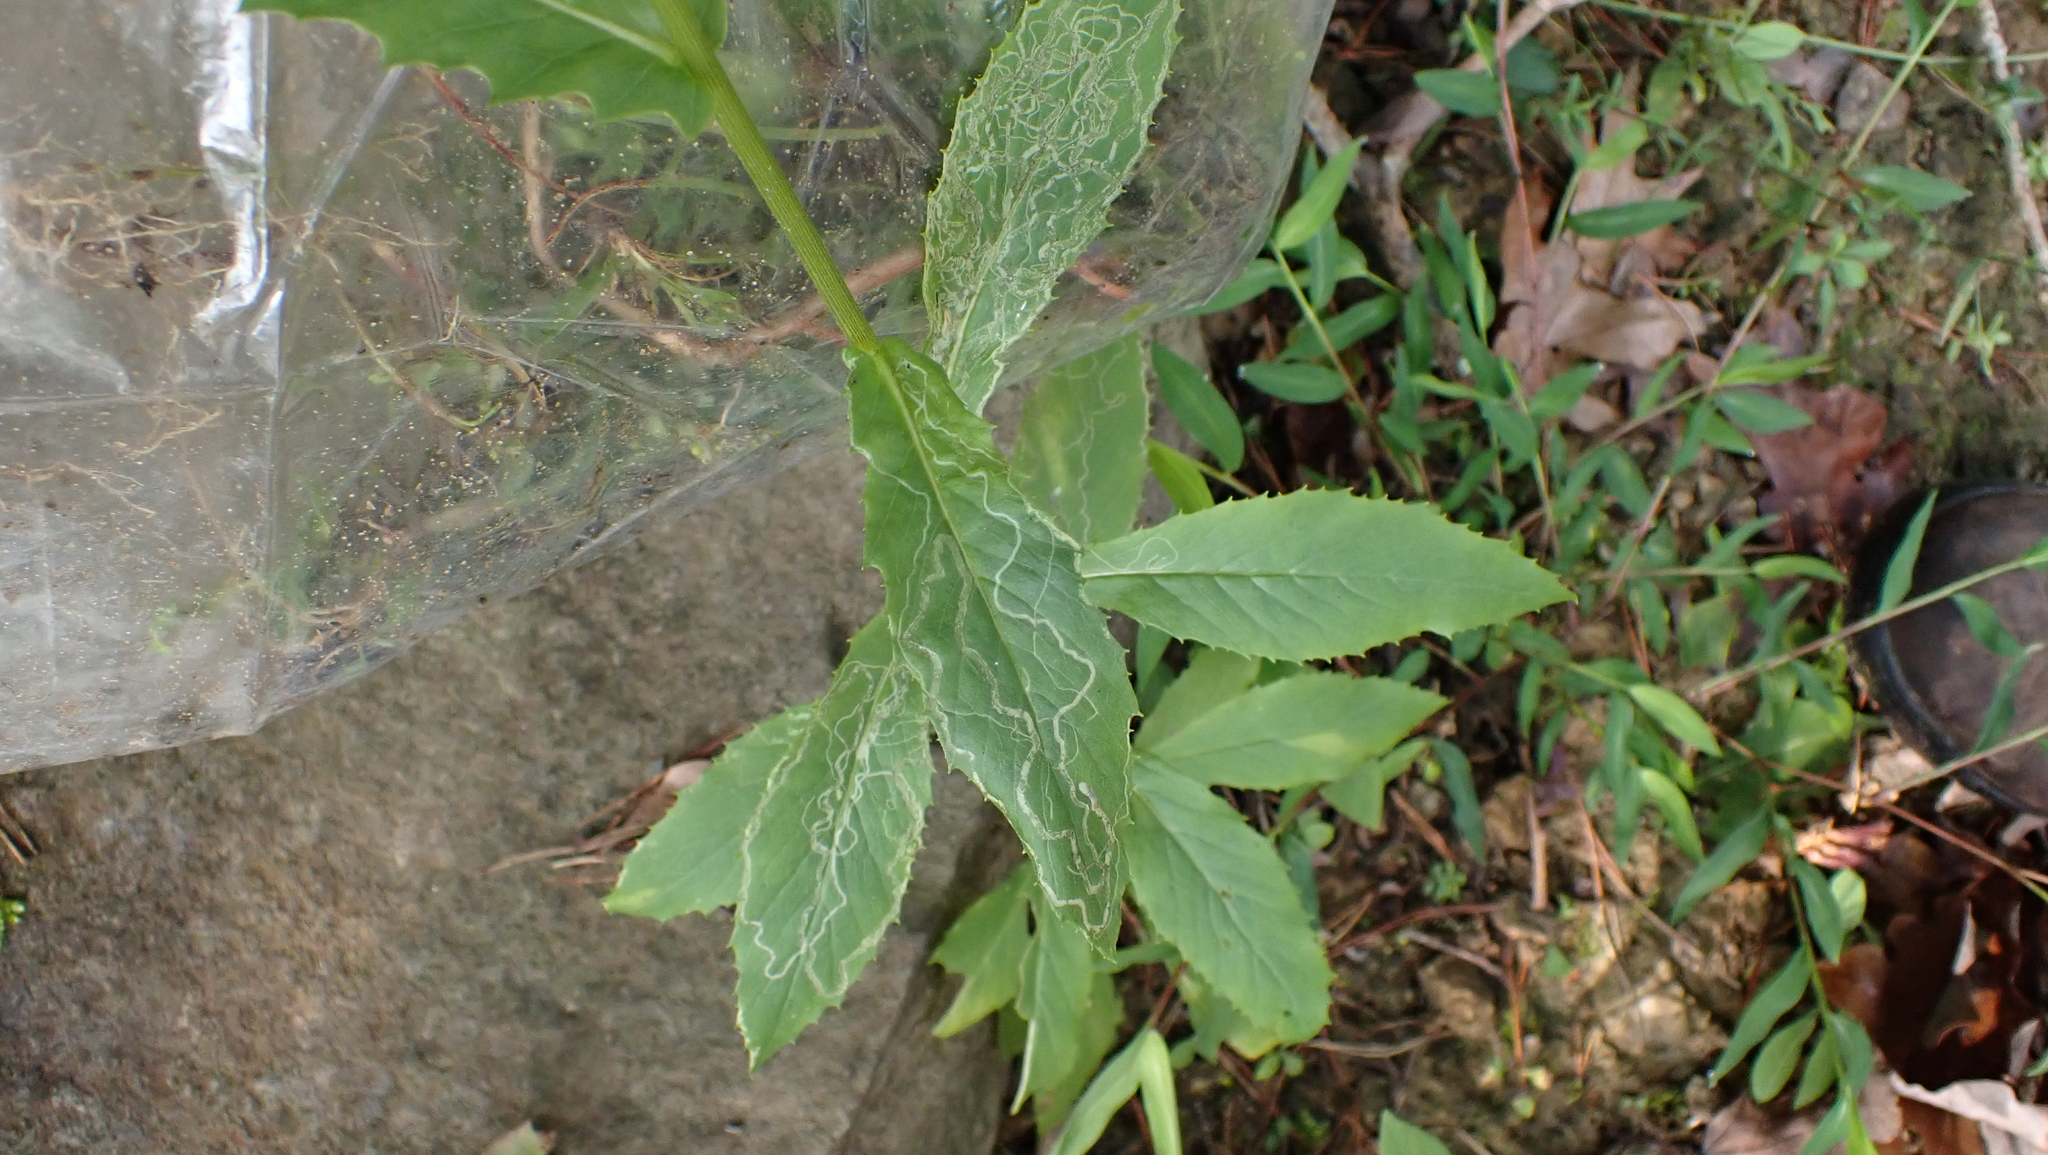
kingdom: Plantae
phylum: Tracheophyta
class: Magnoliopsida
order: Asterales
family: Asteraceae
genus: Erechtites
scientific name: Erechtites hieraciifolius
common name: American burnweed
